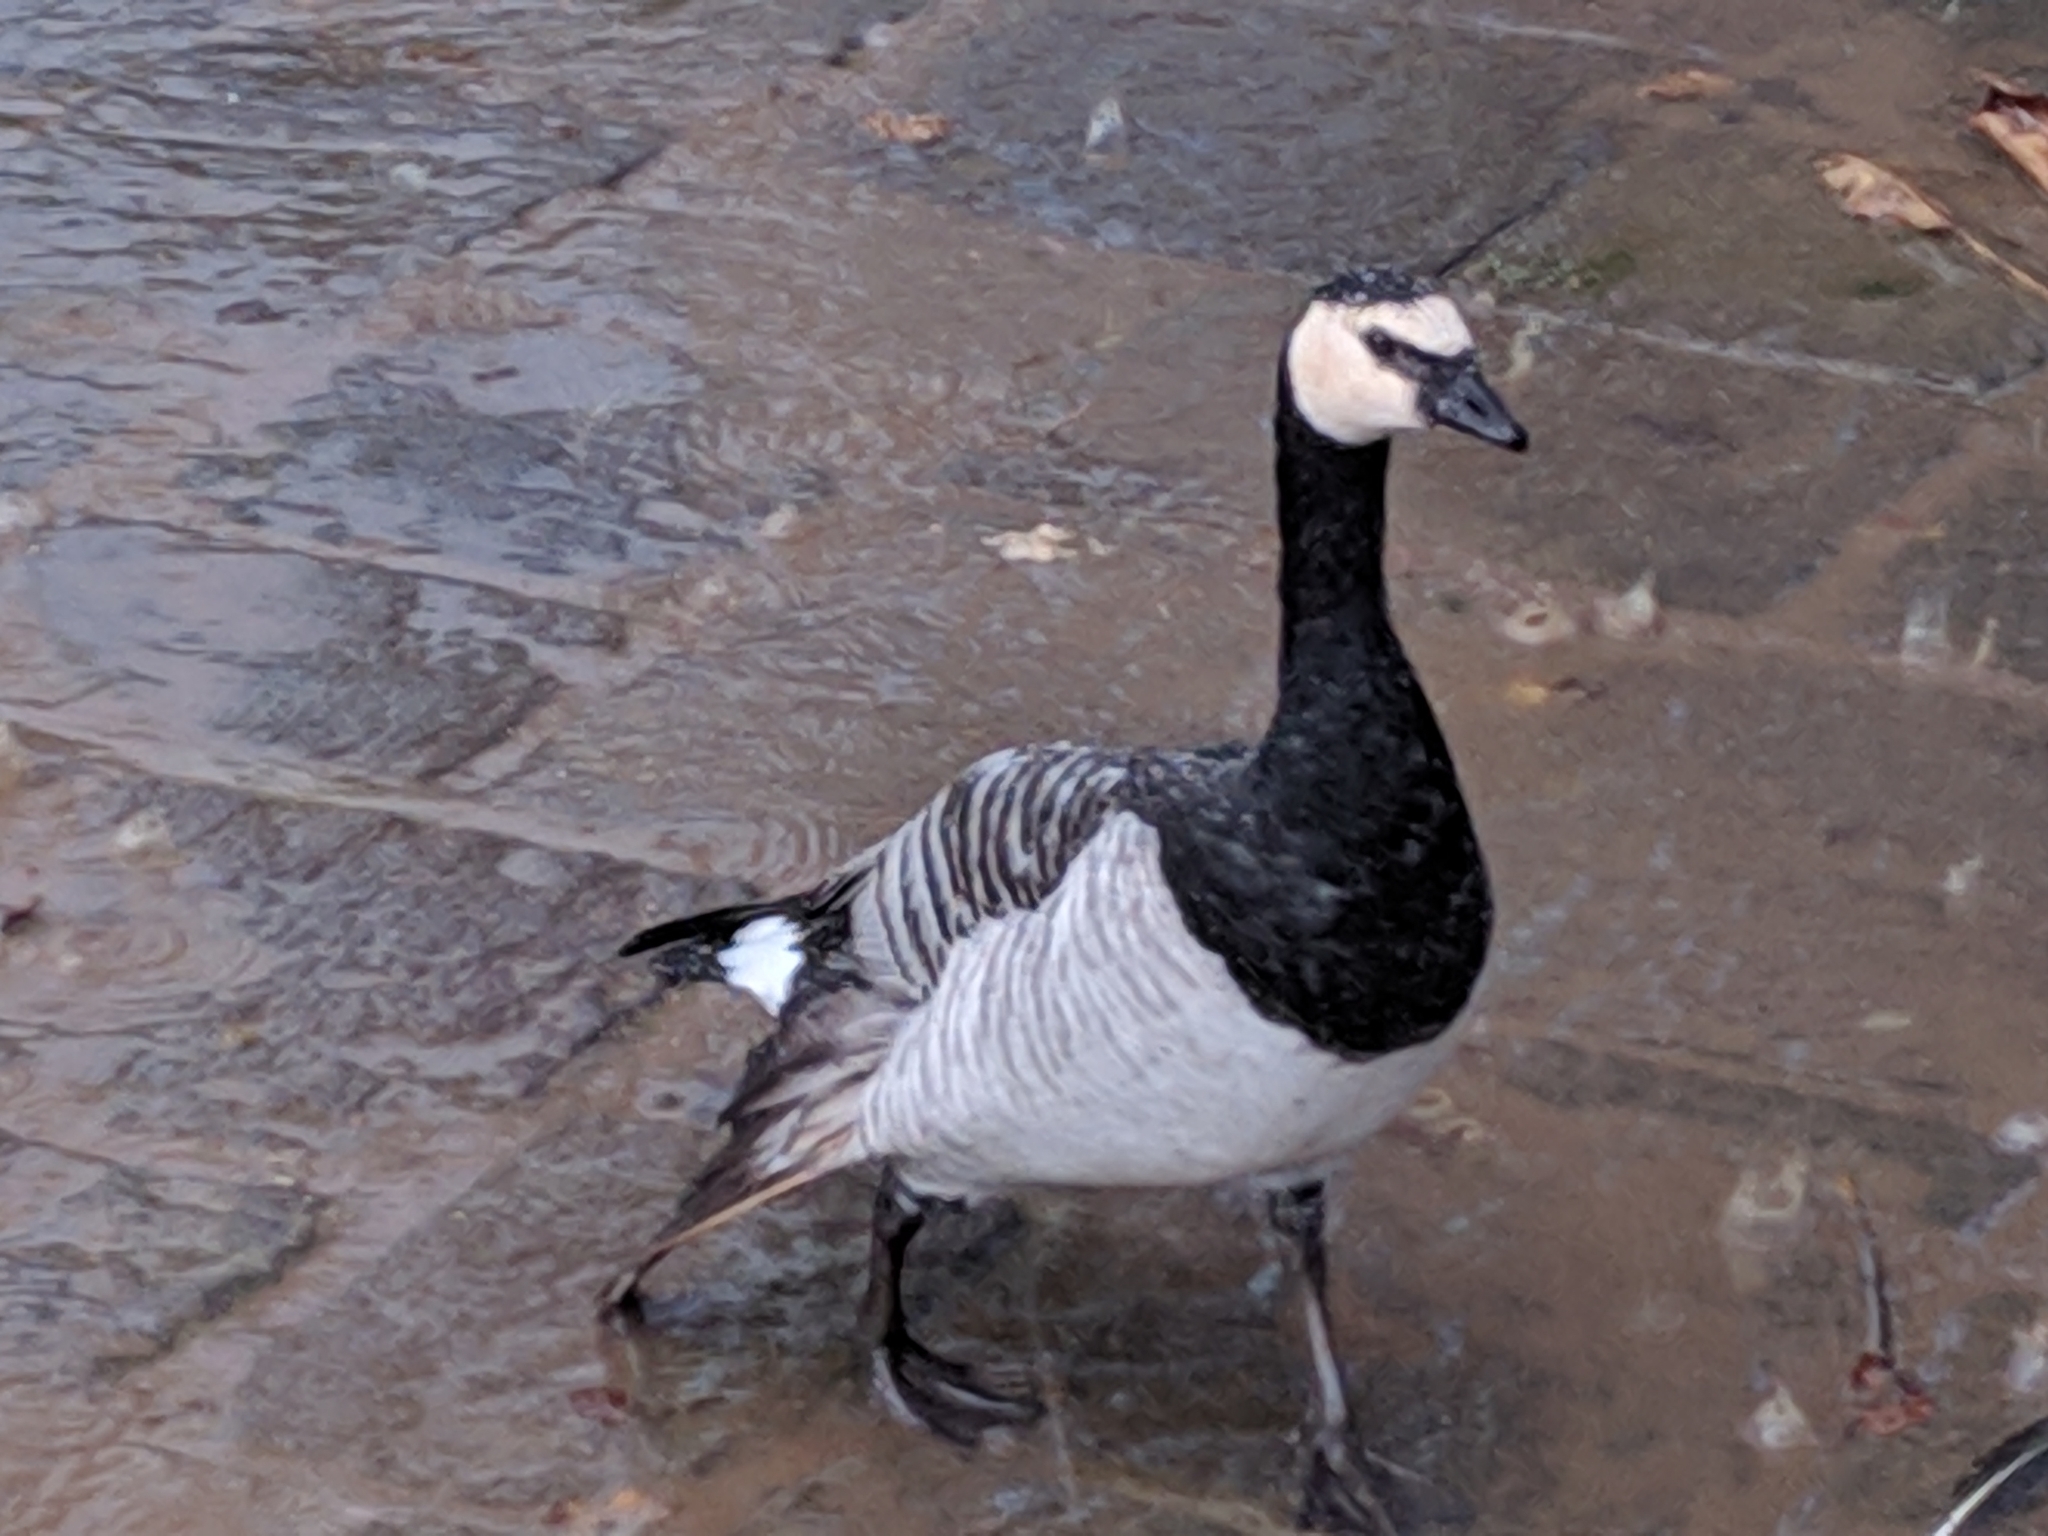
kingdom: Animalia
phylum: Chordata
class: Aves
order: Anseriformes
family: Anatidae
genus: Branta
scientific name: Branta leucopsis
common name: Barnacle goose
